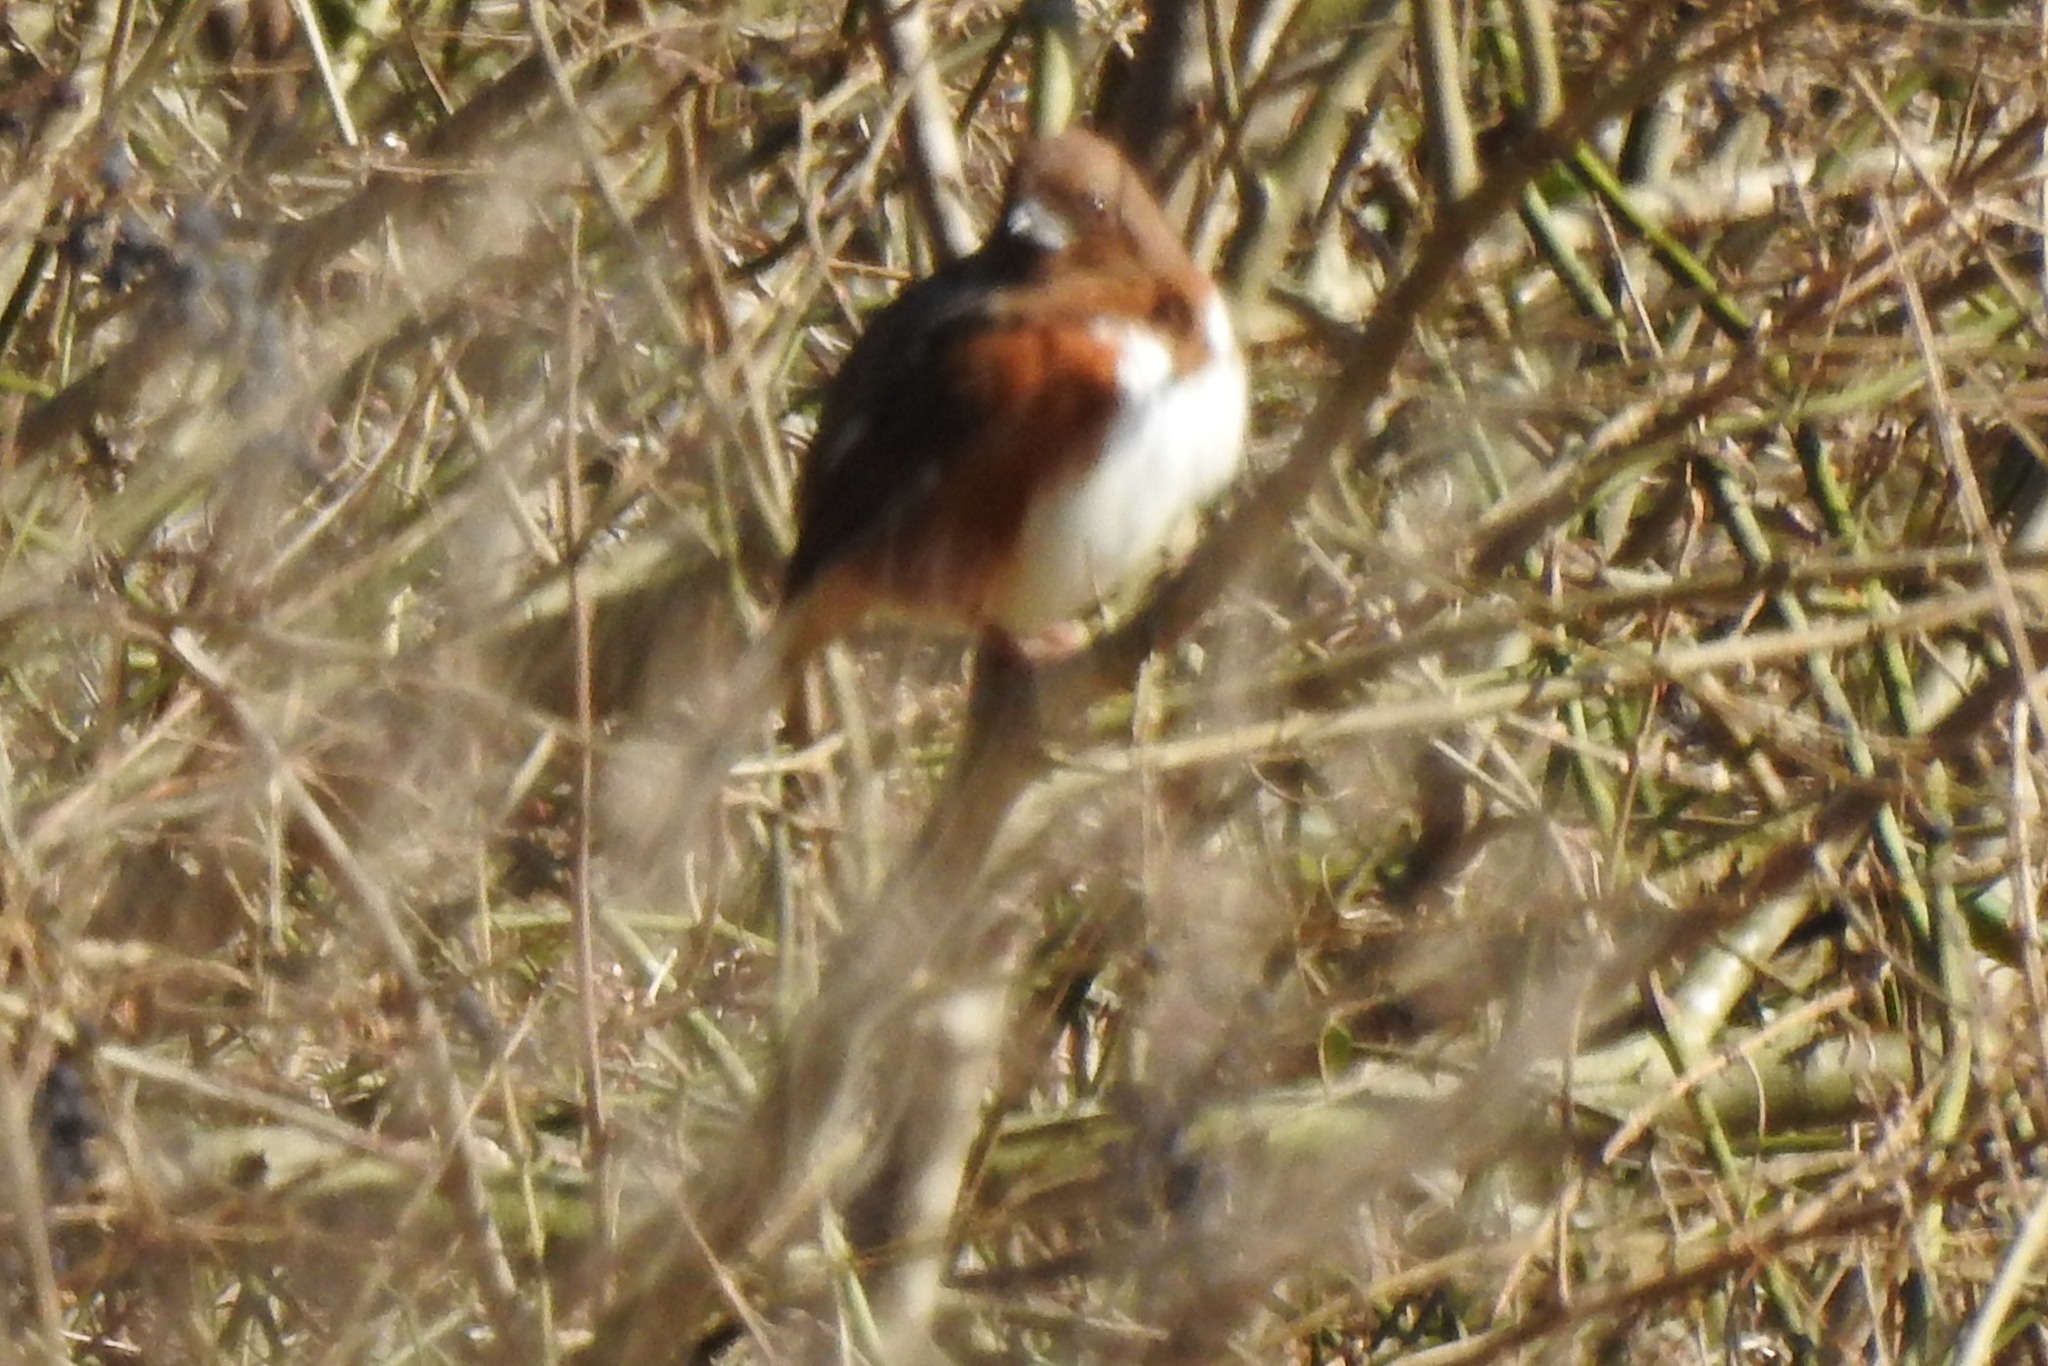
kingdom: Animalia
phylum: Chordata
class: Aves
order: Passeriformes
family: Passerellidae
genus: Pipilo
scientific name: Pipilo erythrophthalmus
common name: Eastern towhee
